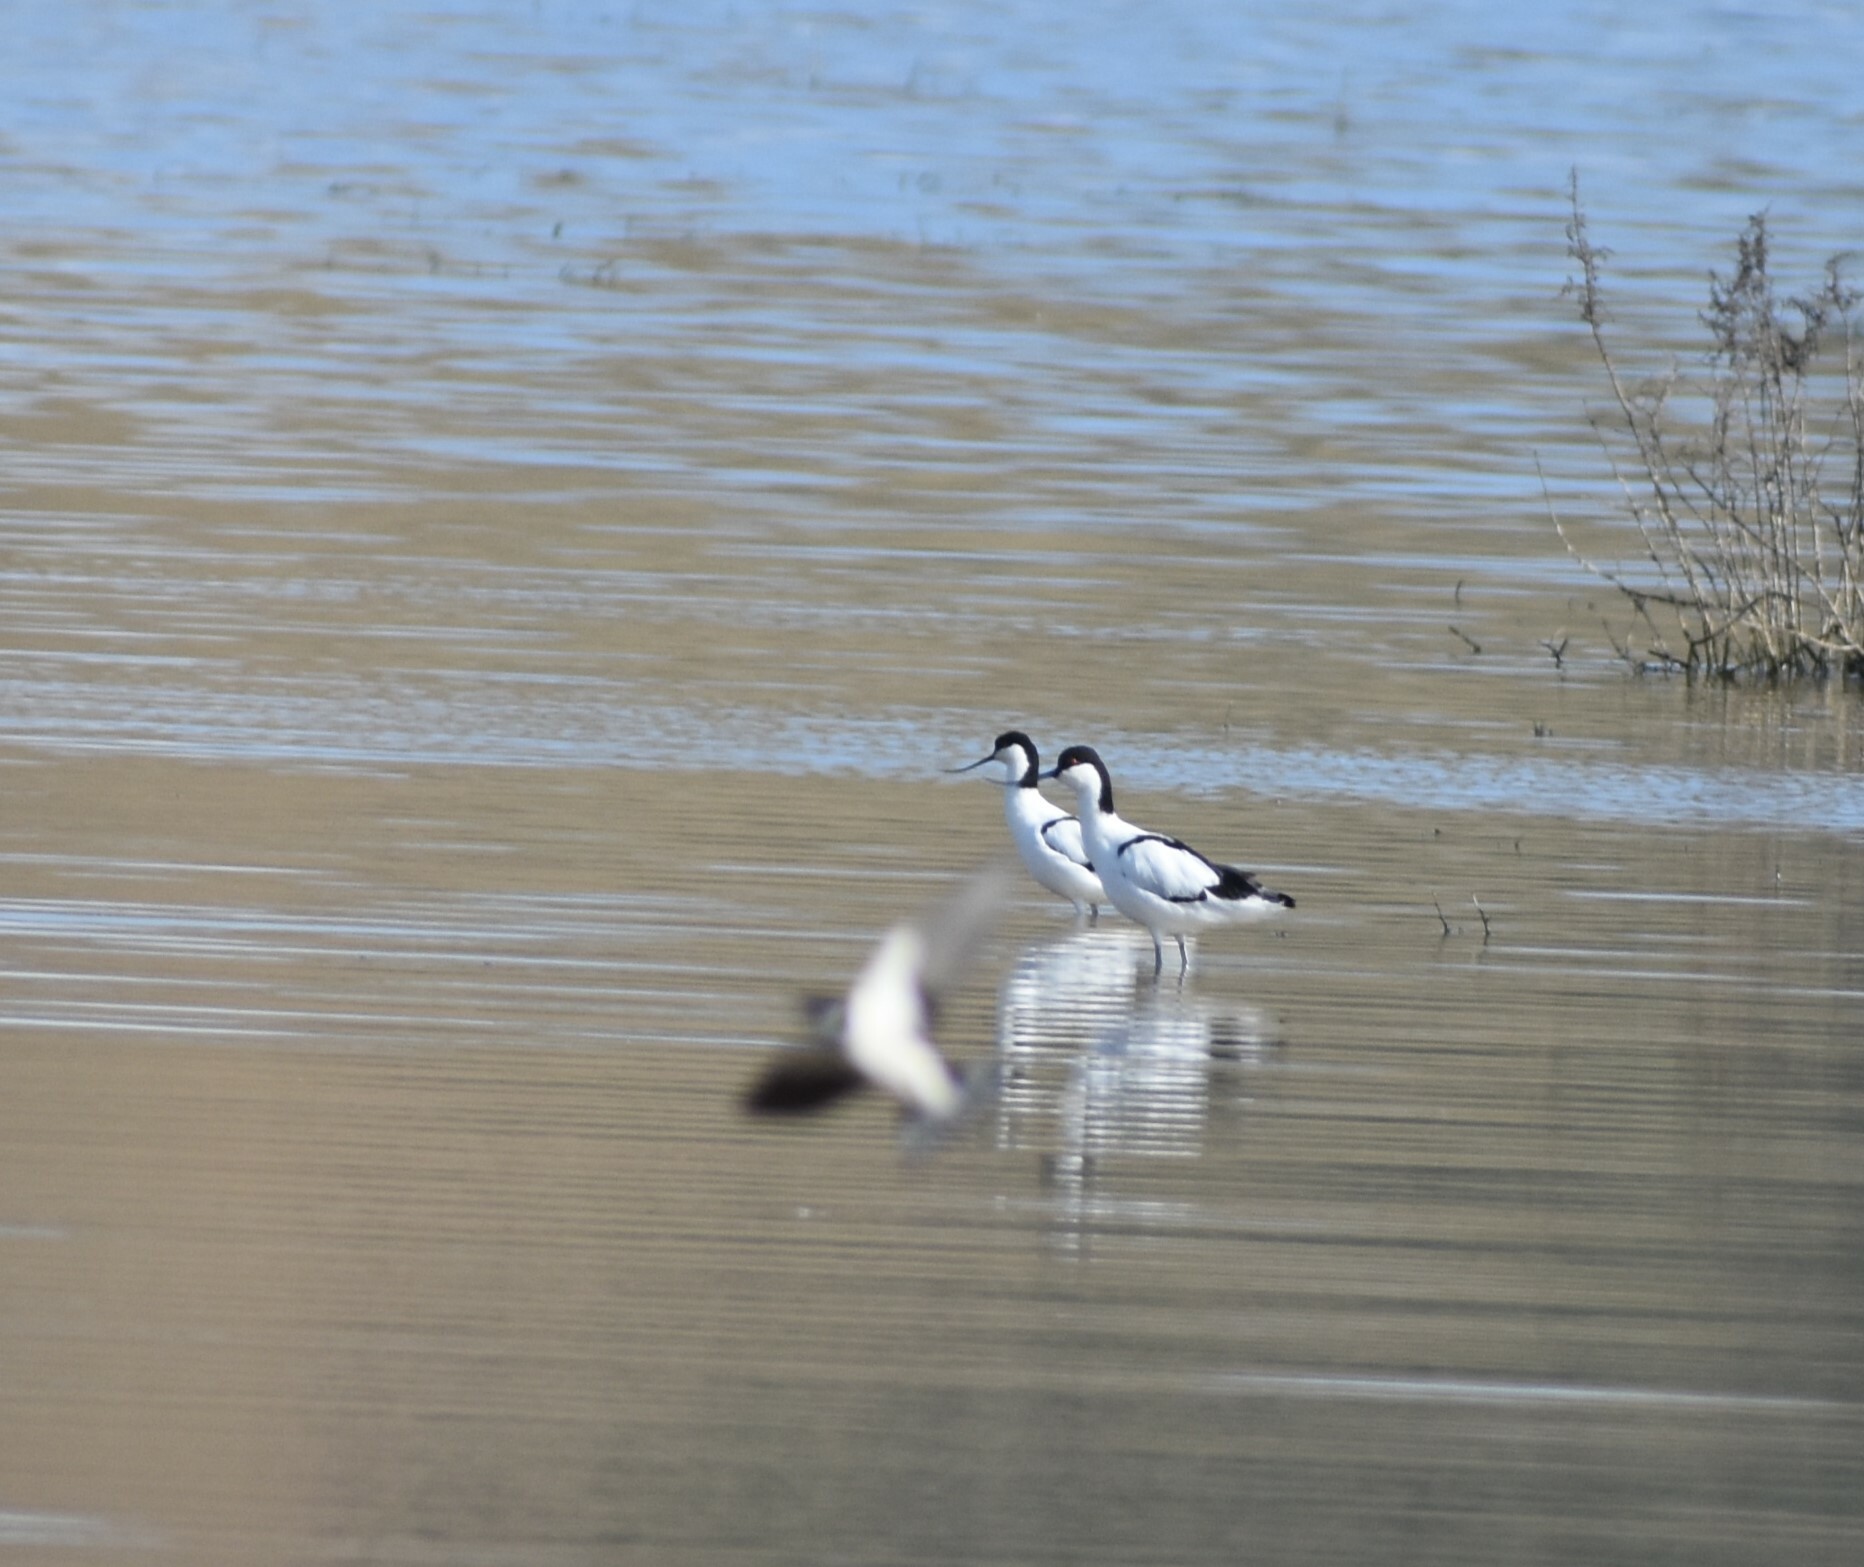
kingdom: Animalia
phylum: Chordata
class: Aves
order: Charadriiformes
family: Recurvirostridae
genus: Recurvirostra
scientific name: Recurvirostra avosetta
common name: Pied avocet
